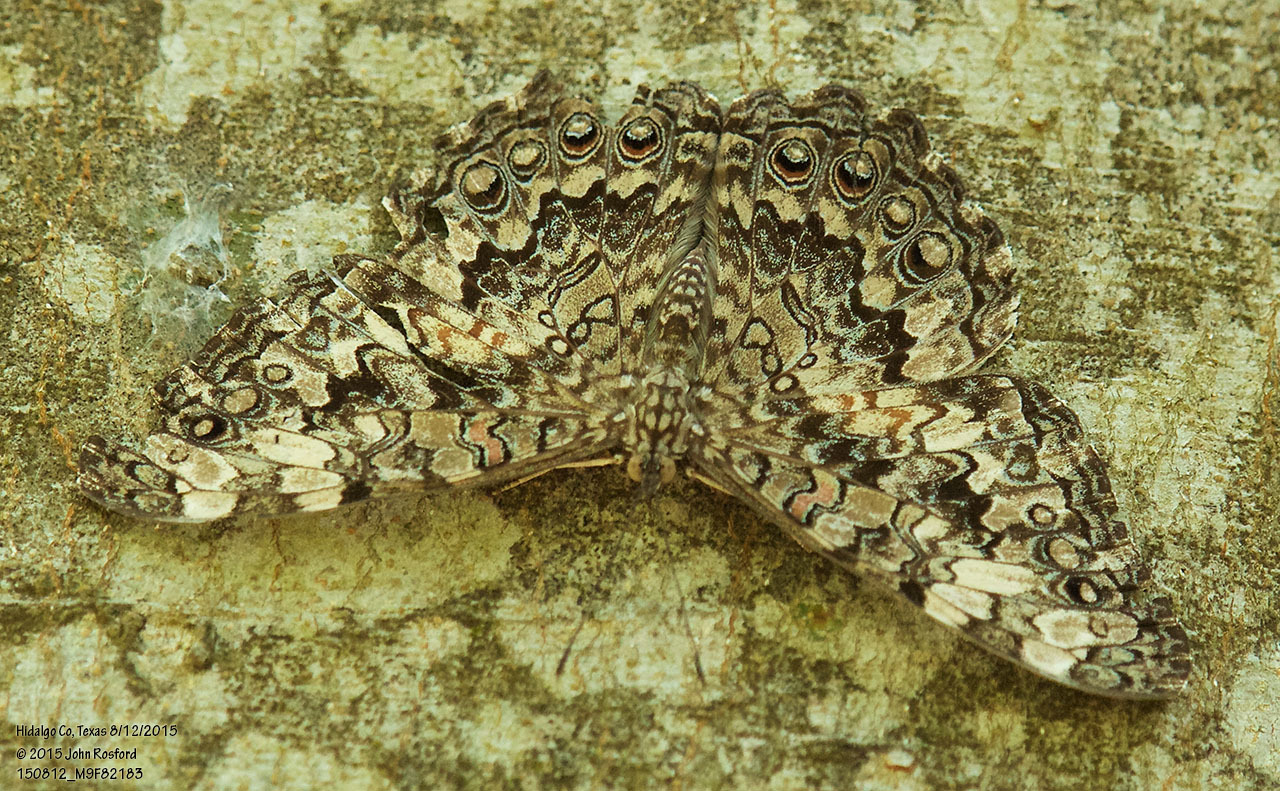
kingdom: Animalia
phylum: Arthropoda
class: Insecta
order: Lepidoptera
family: Nymphalidae
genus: Hamadryas
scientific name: Hamadryas februa
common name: Gray cracker
